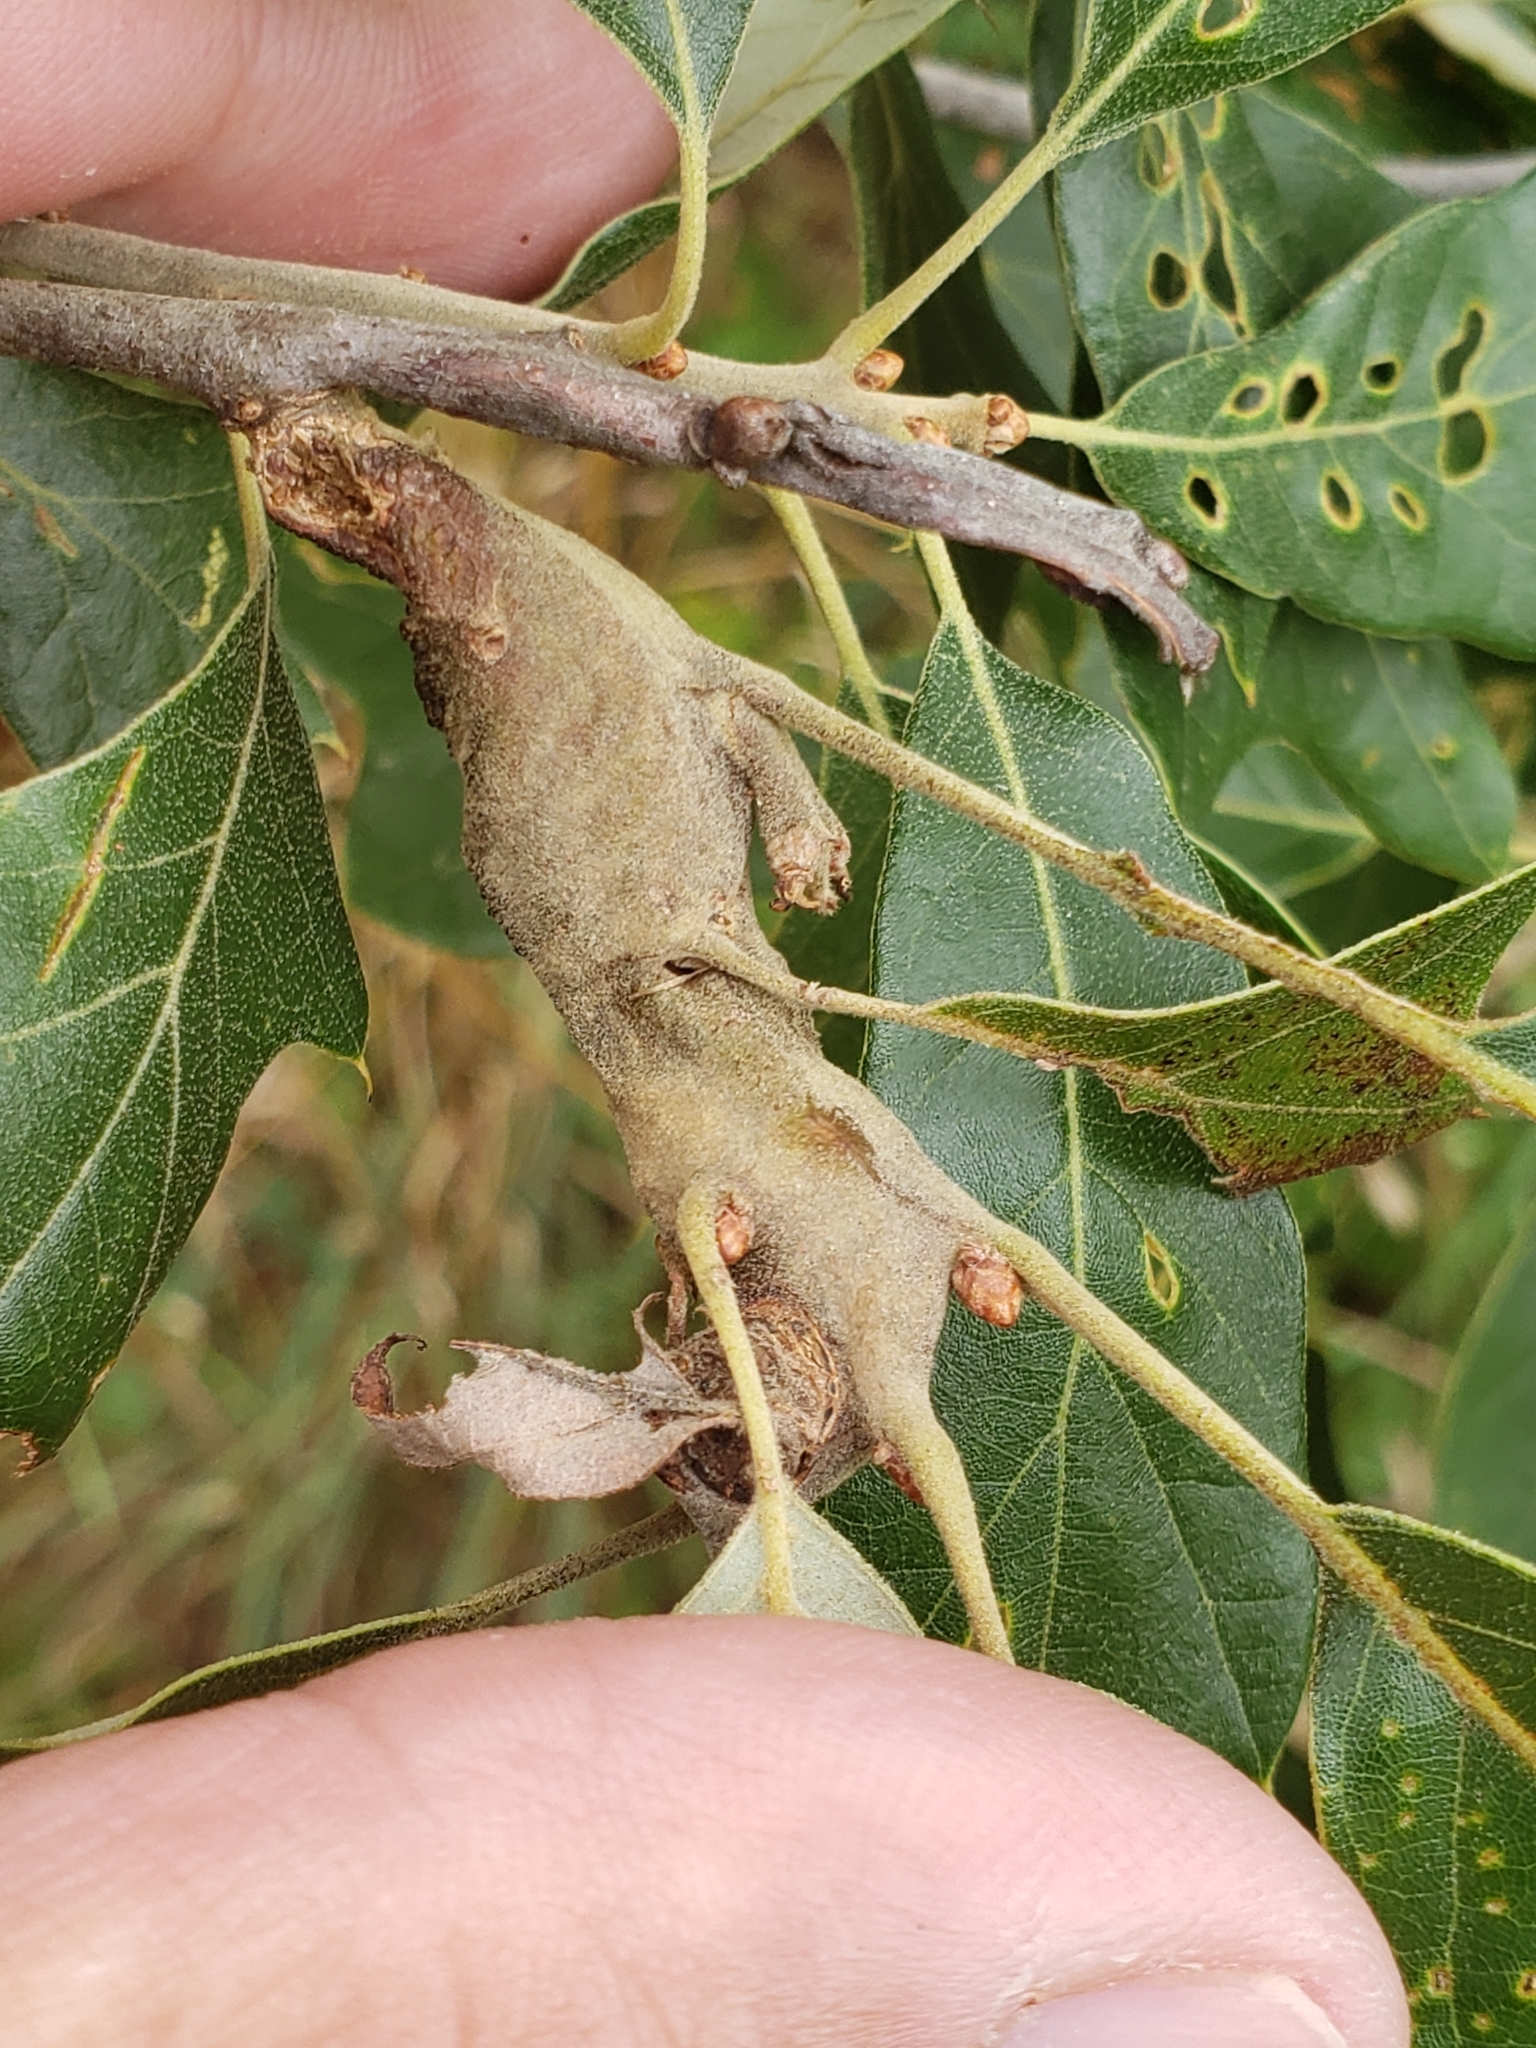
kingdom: Animalia
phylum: Arthropoda
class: Insecta
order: Hymenoptera
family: Cynipidae
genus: Zapatella
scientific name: Zapatella quercusphellos
